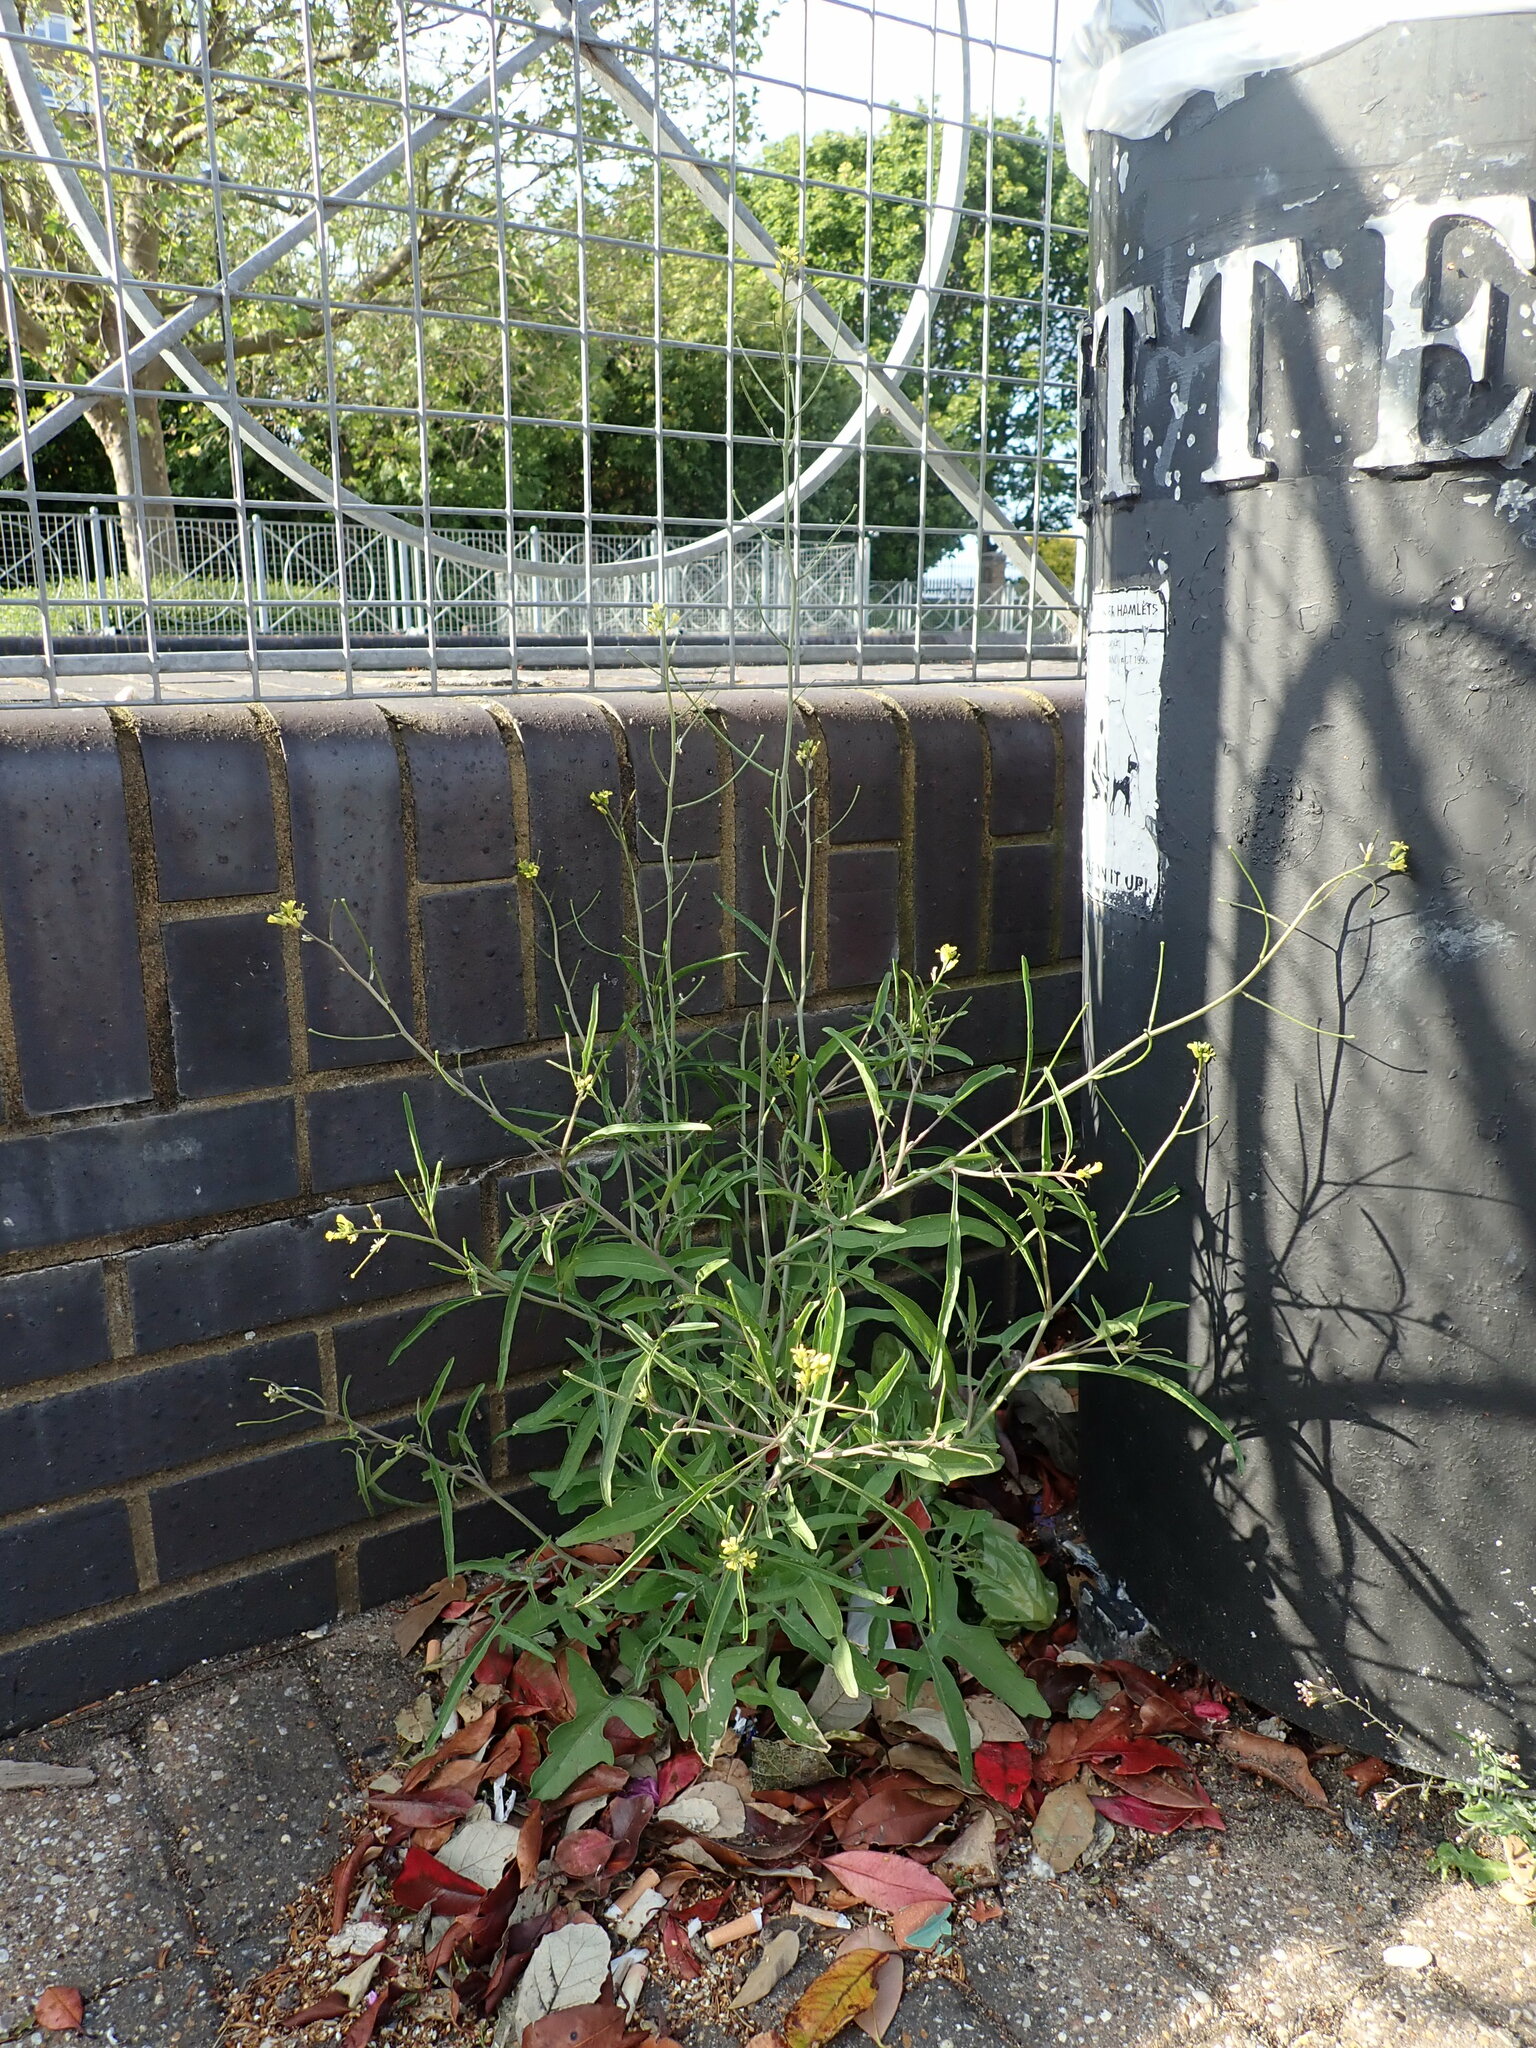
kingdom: Plantae
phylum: Tracheophyta
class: Magnoliopsida
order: Brassicales
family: Brassicaceae
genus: Sisymbrium
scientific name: Sisymbrium orientale
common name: Eastern rocket
